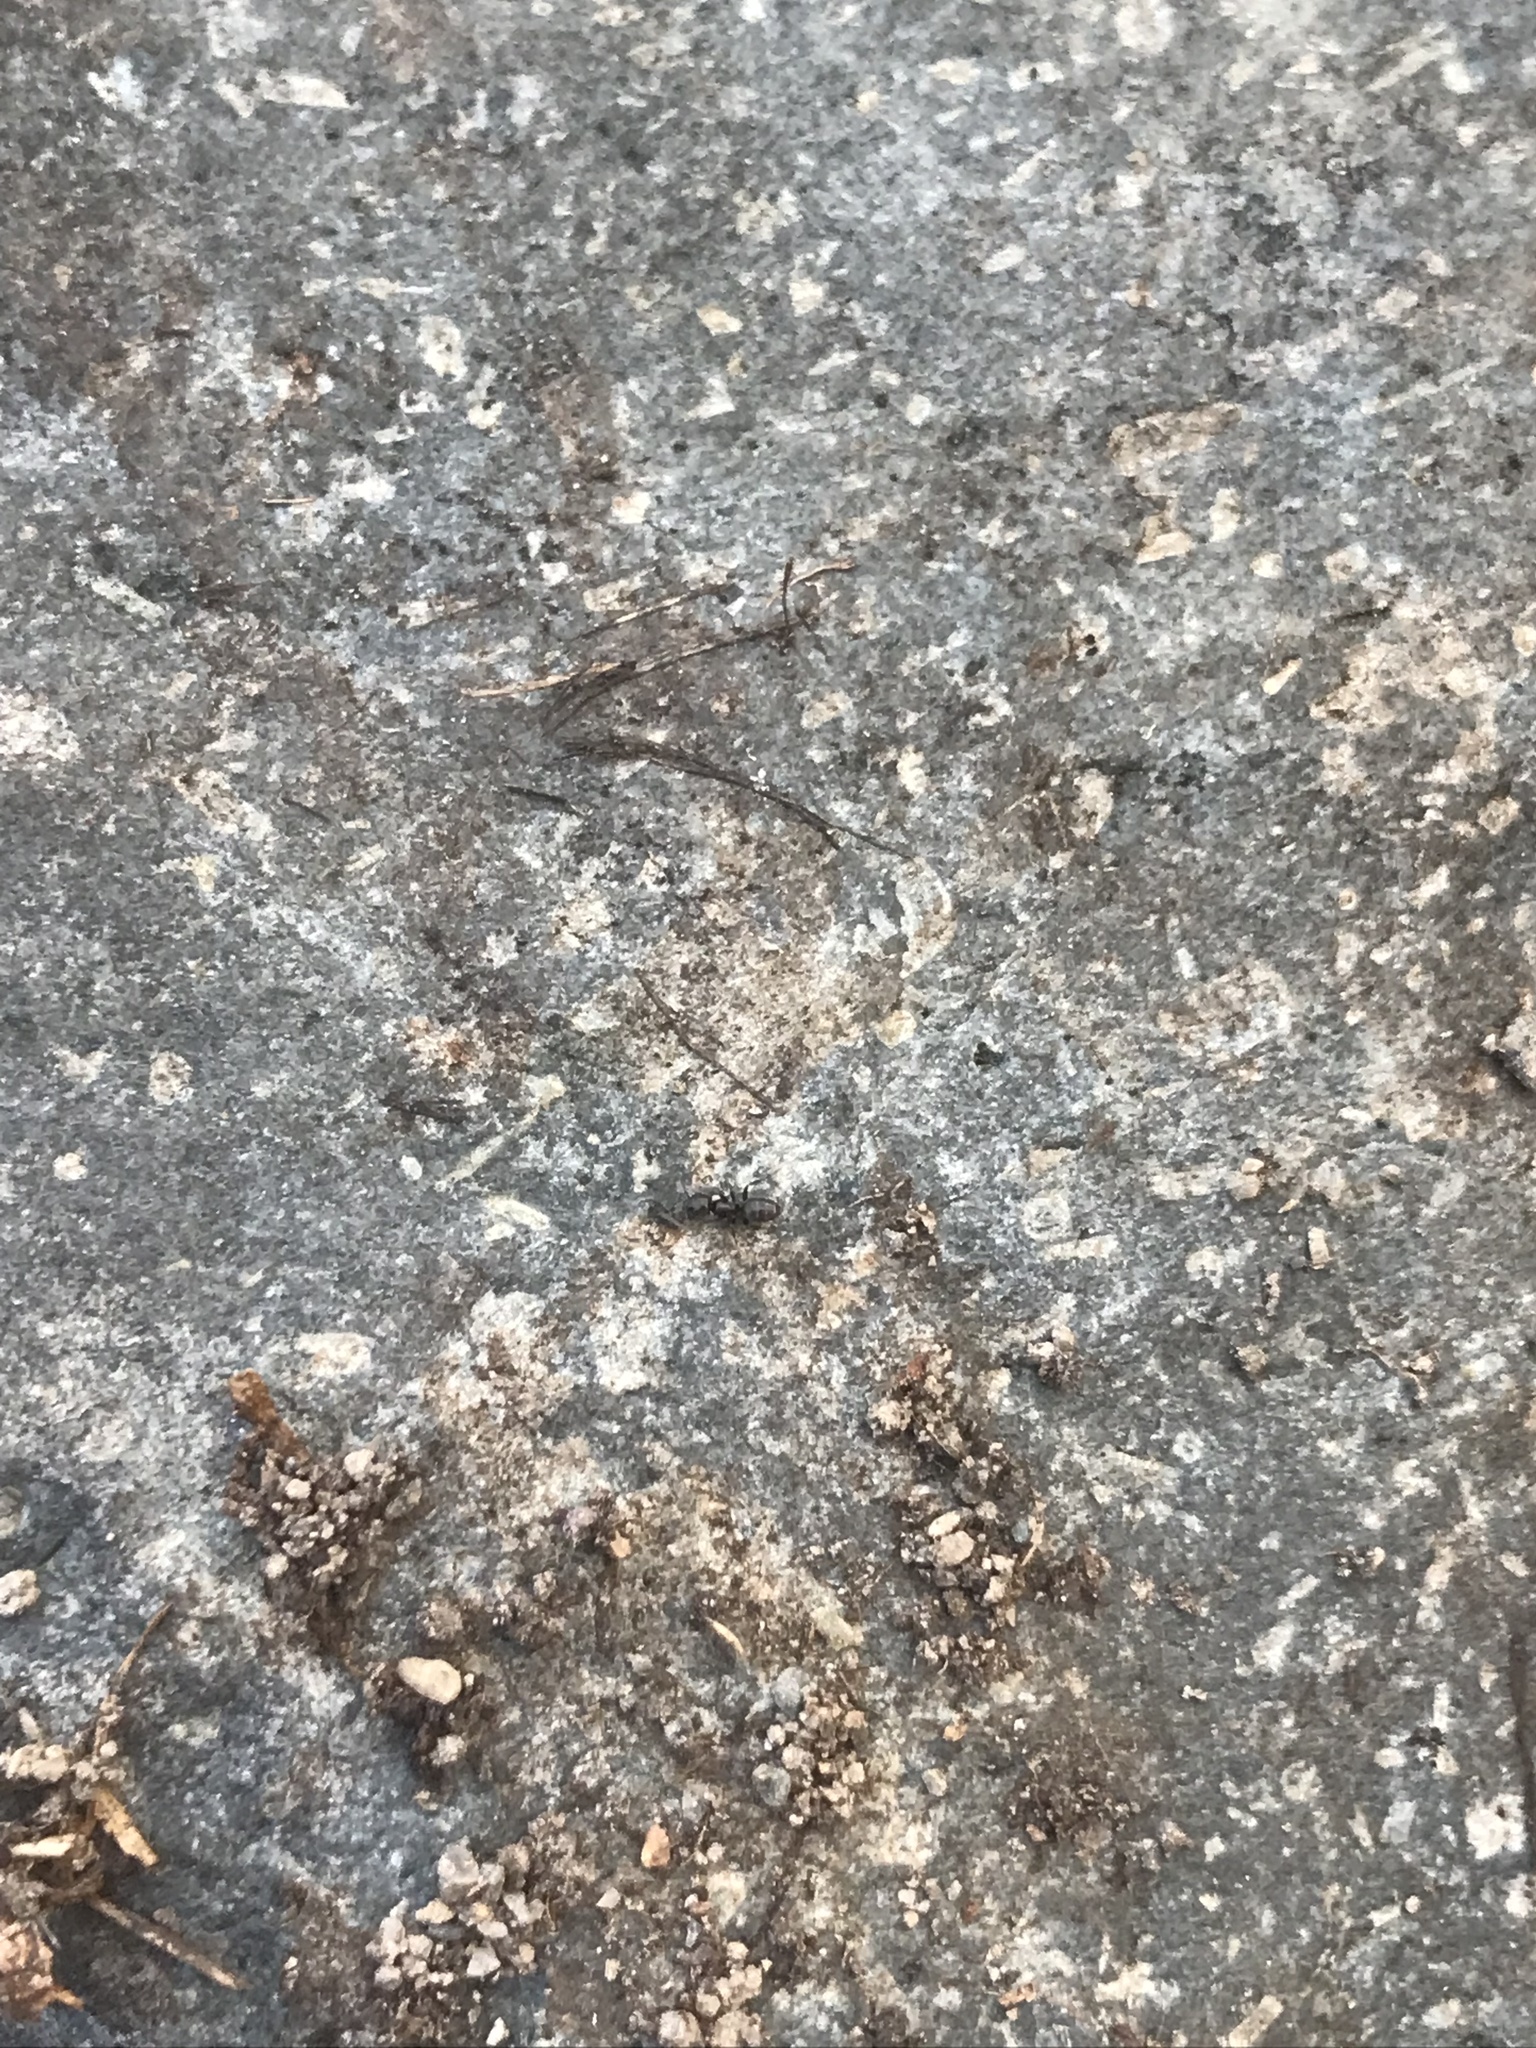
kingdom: Animalia
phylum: Arthropoda
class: Insecta
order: Hymenoptera
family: Formicidae
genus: Tapinoma
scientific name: Tapinoma sessile
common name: Odorous house ant
